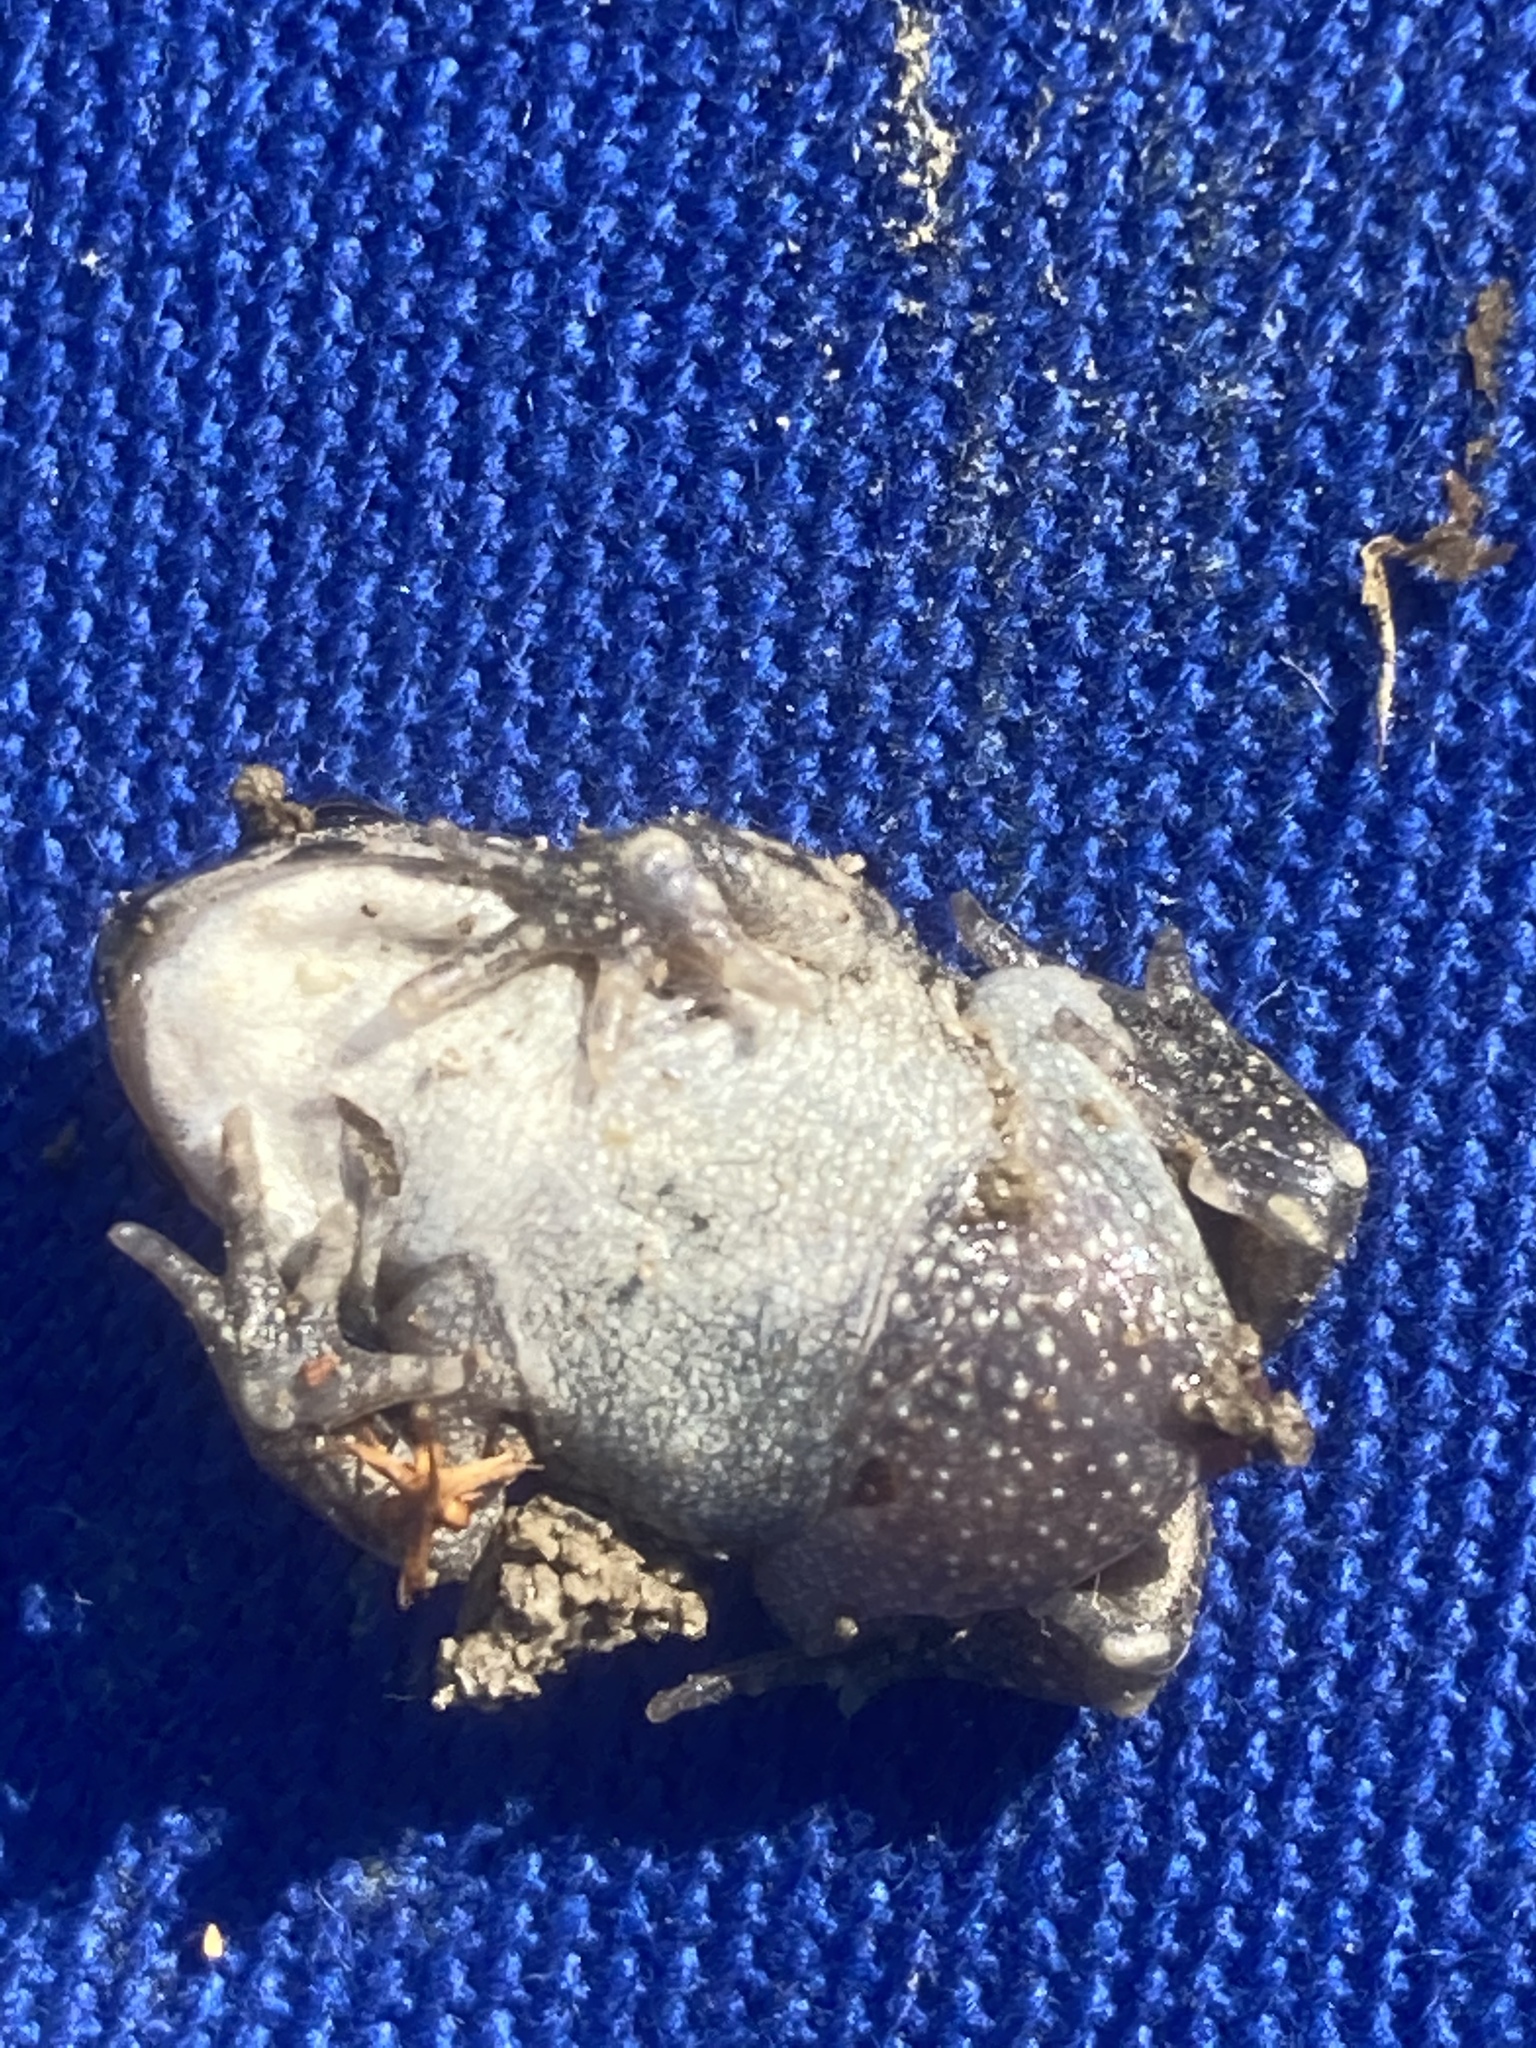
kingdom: Animalia
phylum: Chordata
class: Amphibia
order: Anura
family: Bufonidae
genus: Bufotes
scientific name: Bufotes viridis
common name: European green toad
